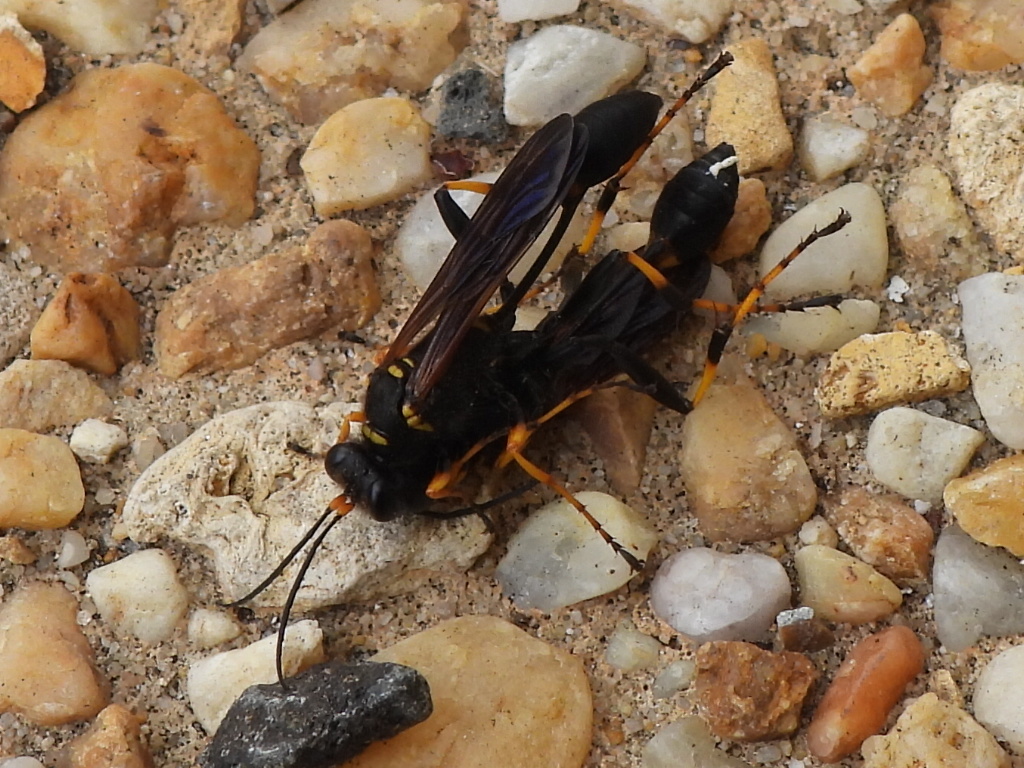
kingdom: Animalia
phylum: Arthropoda
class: Insecta
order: Hymenoptera
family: Sphecidae
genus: Sceliphron
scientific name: Sceliphron caementarium
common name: Mud dauber
